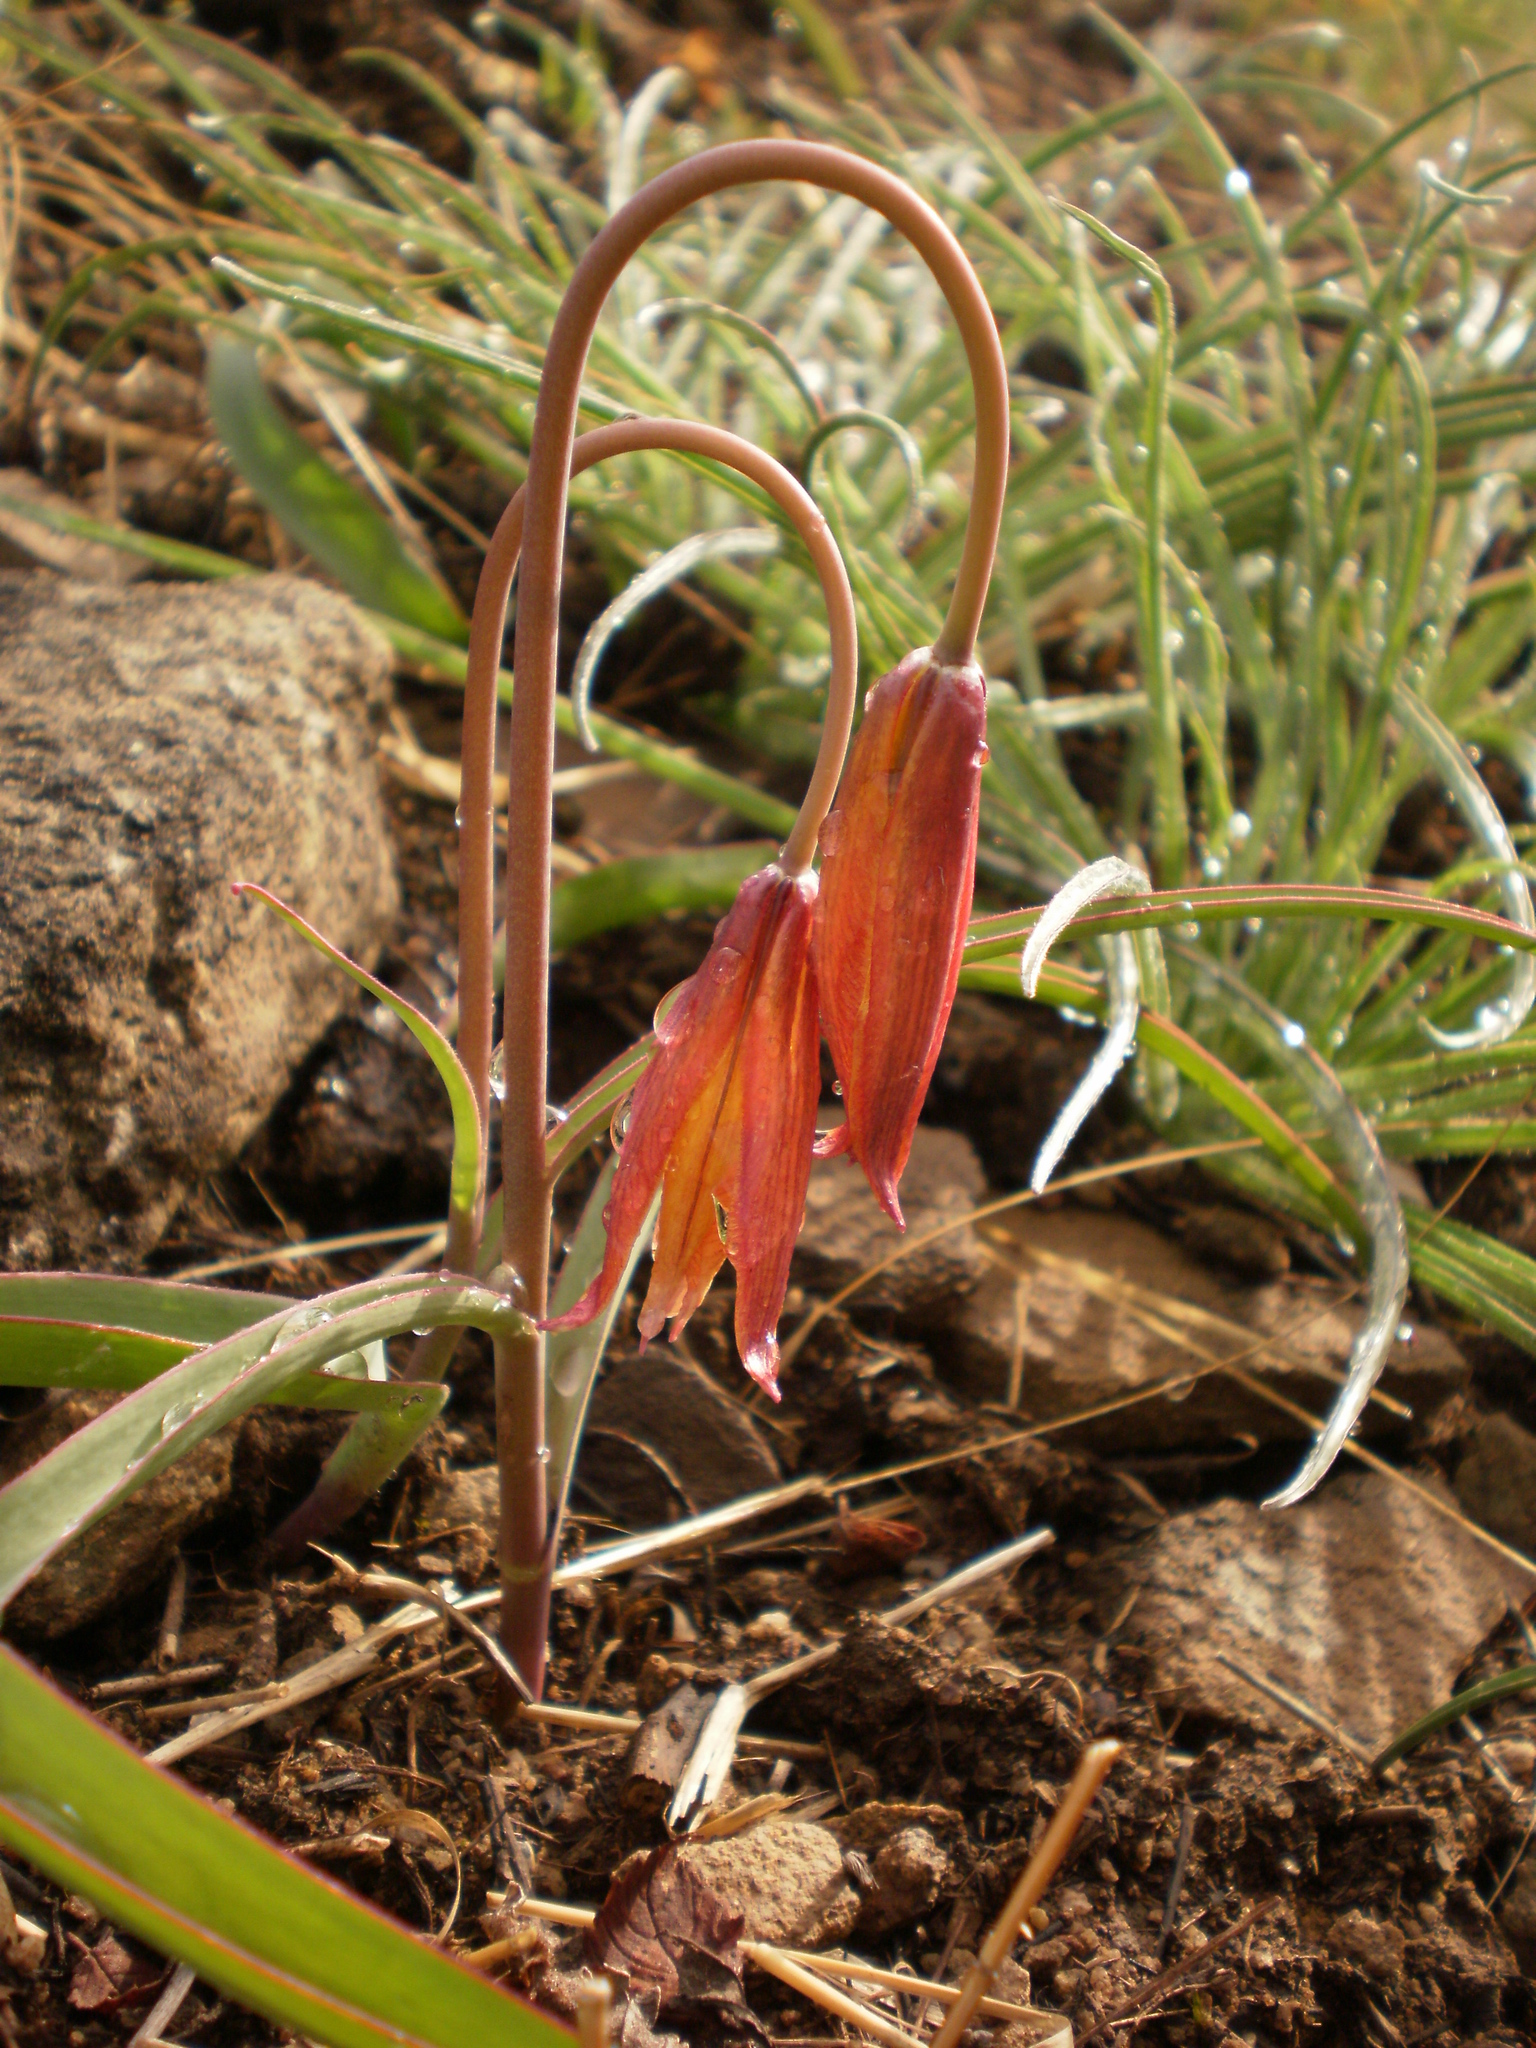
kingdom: Plantae
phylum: Tracheophyta
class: Liliopsida
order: Liliales
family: Liliaceae
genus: Tulipa
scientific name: Tulipa sylvestris
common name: Wild tulip
